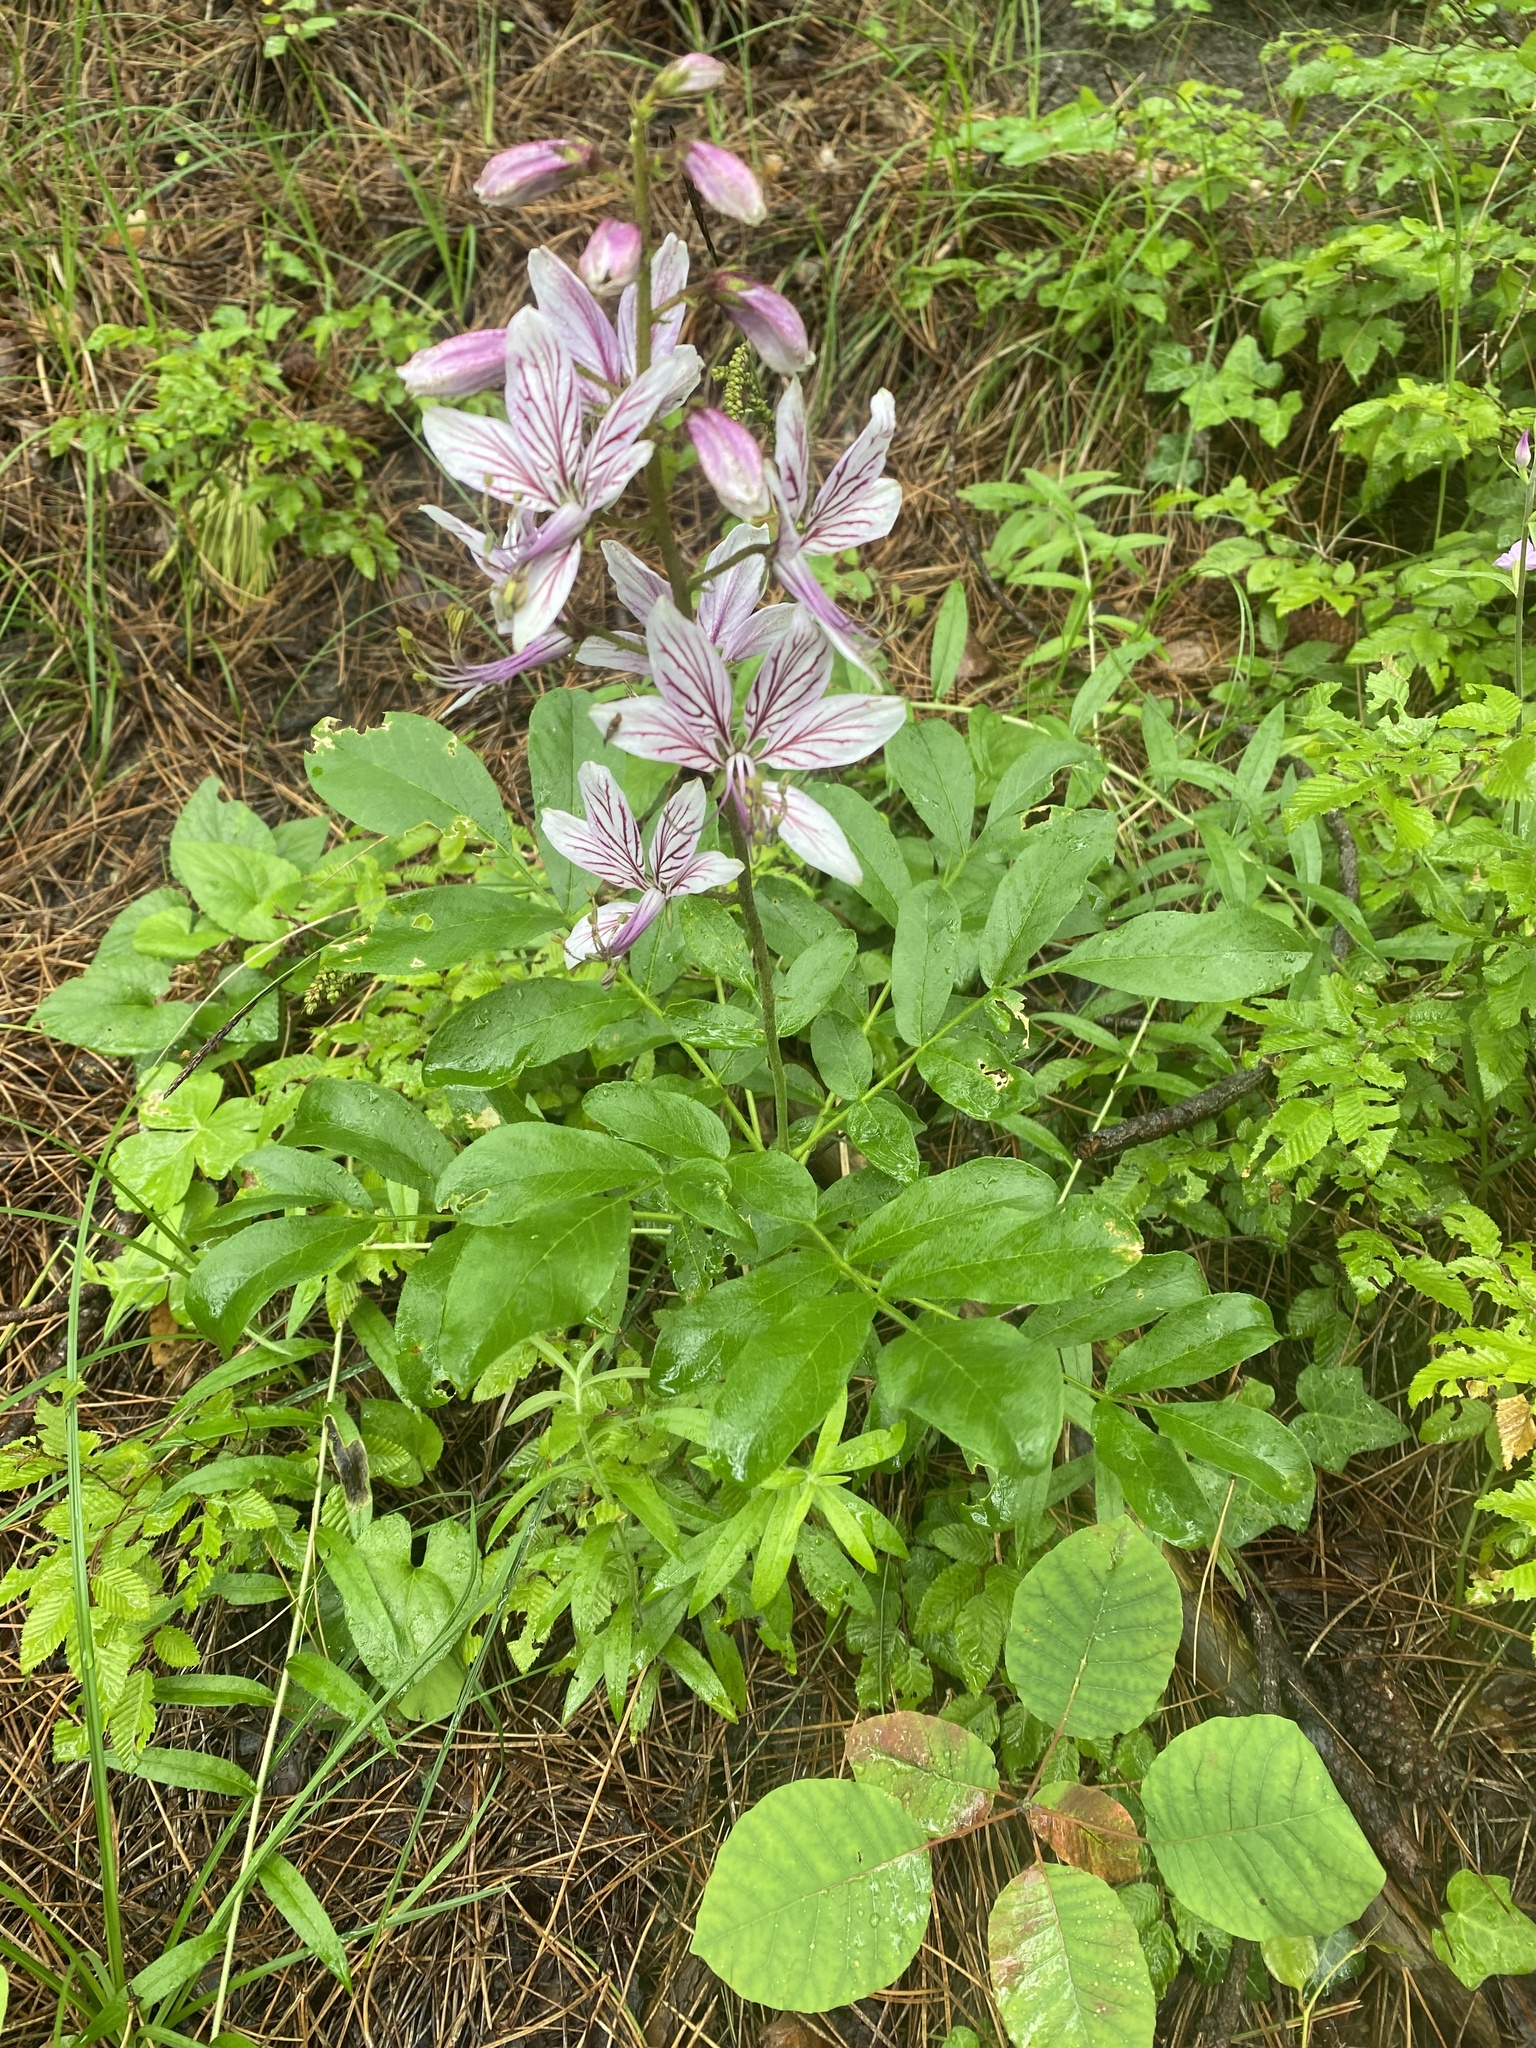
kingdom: Plantae
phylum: Tracheophyta
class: Magnoliopsida
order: Sapindales
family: Rutaceae
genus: Dictamnus
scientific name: Dictamnus albus
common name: Gasplant
